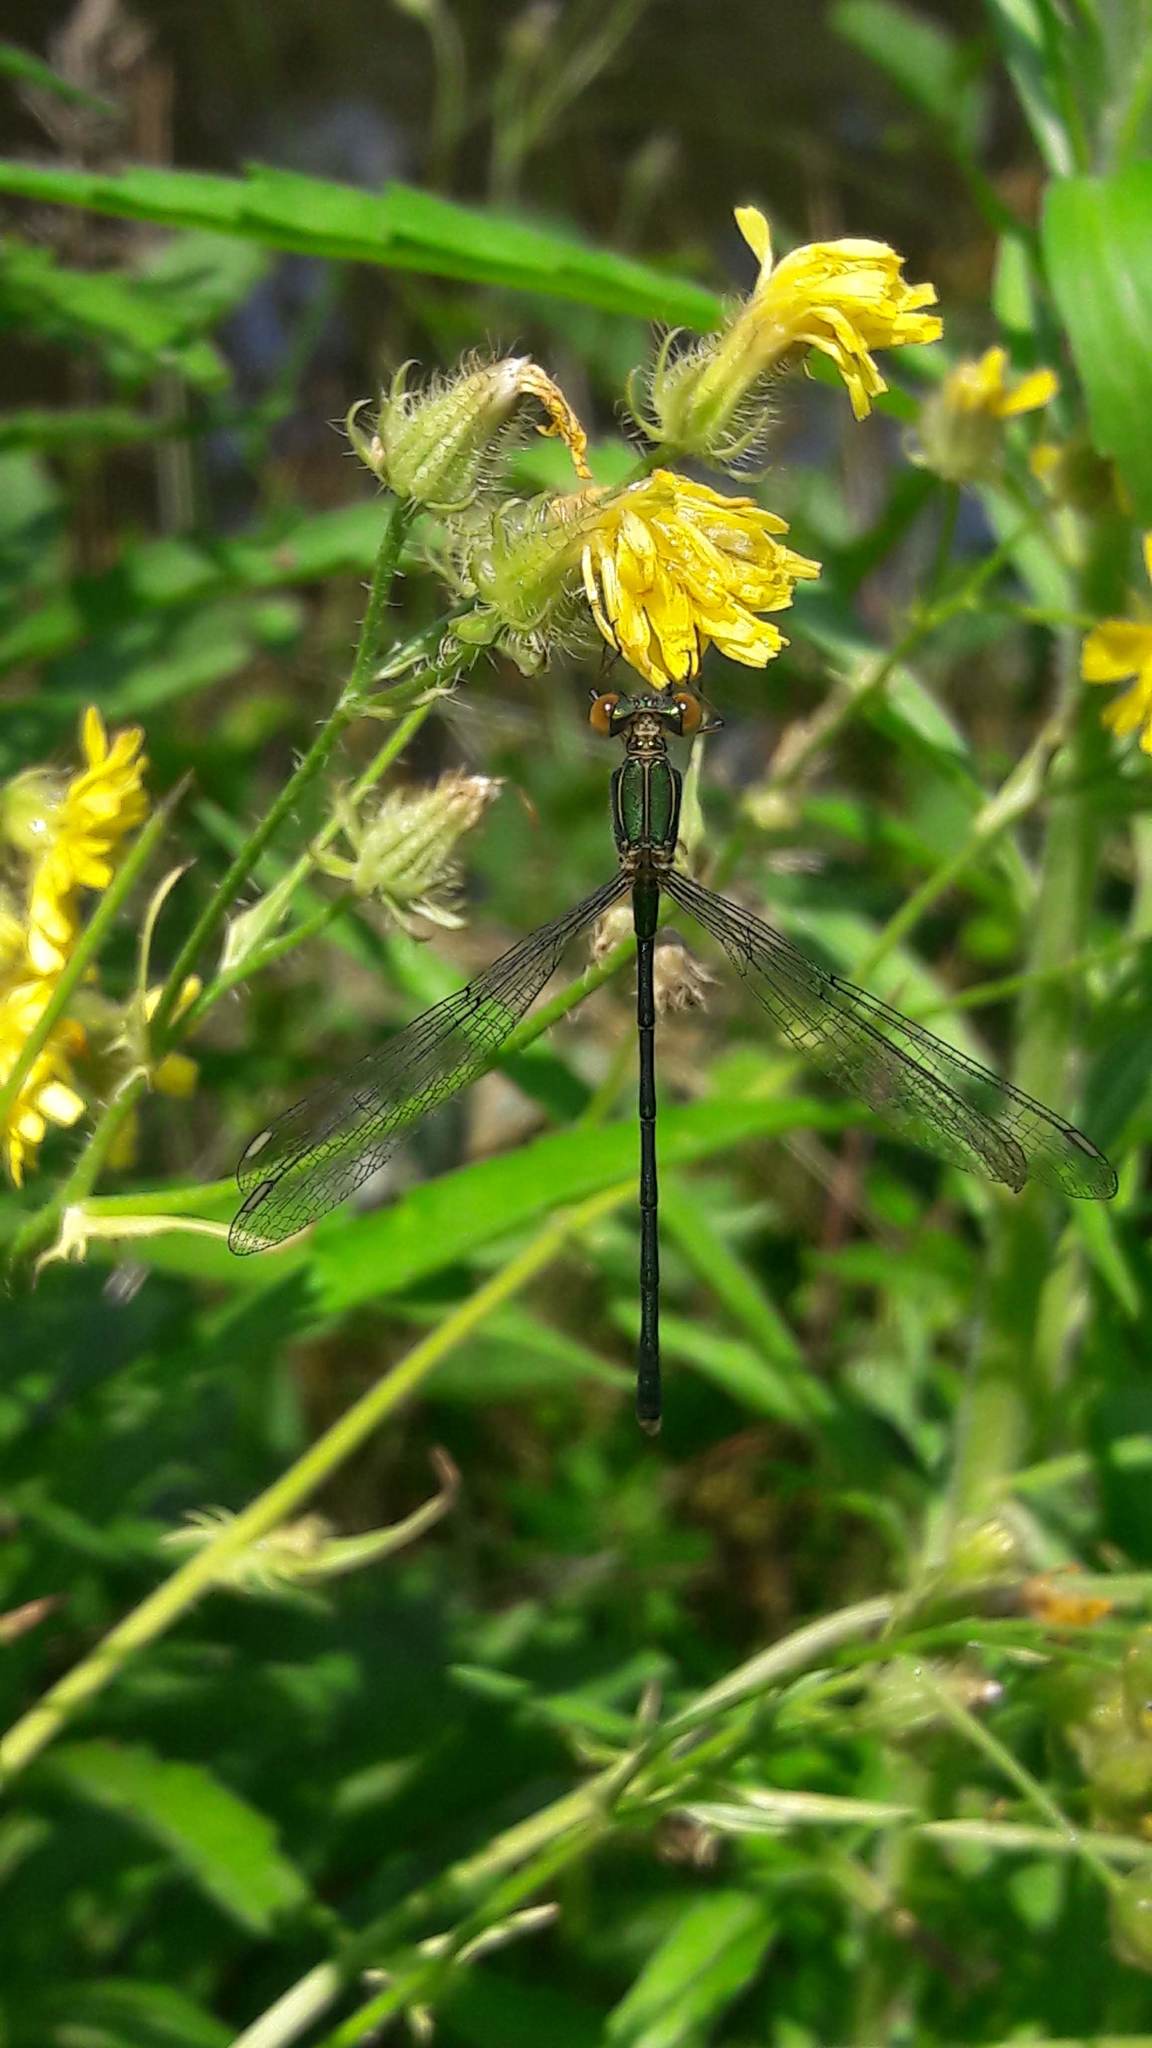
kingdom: Animalia
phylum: Arthropoda
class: Insecta
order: Odonata
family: Lestidae
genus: Chalcolestes
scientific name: Chalcolestes viridis
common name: Green emerald damselfly
